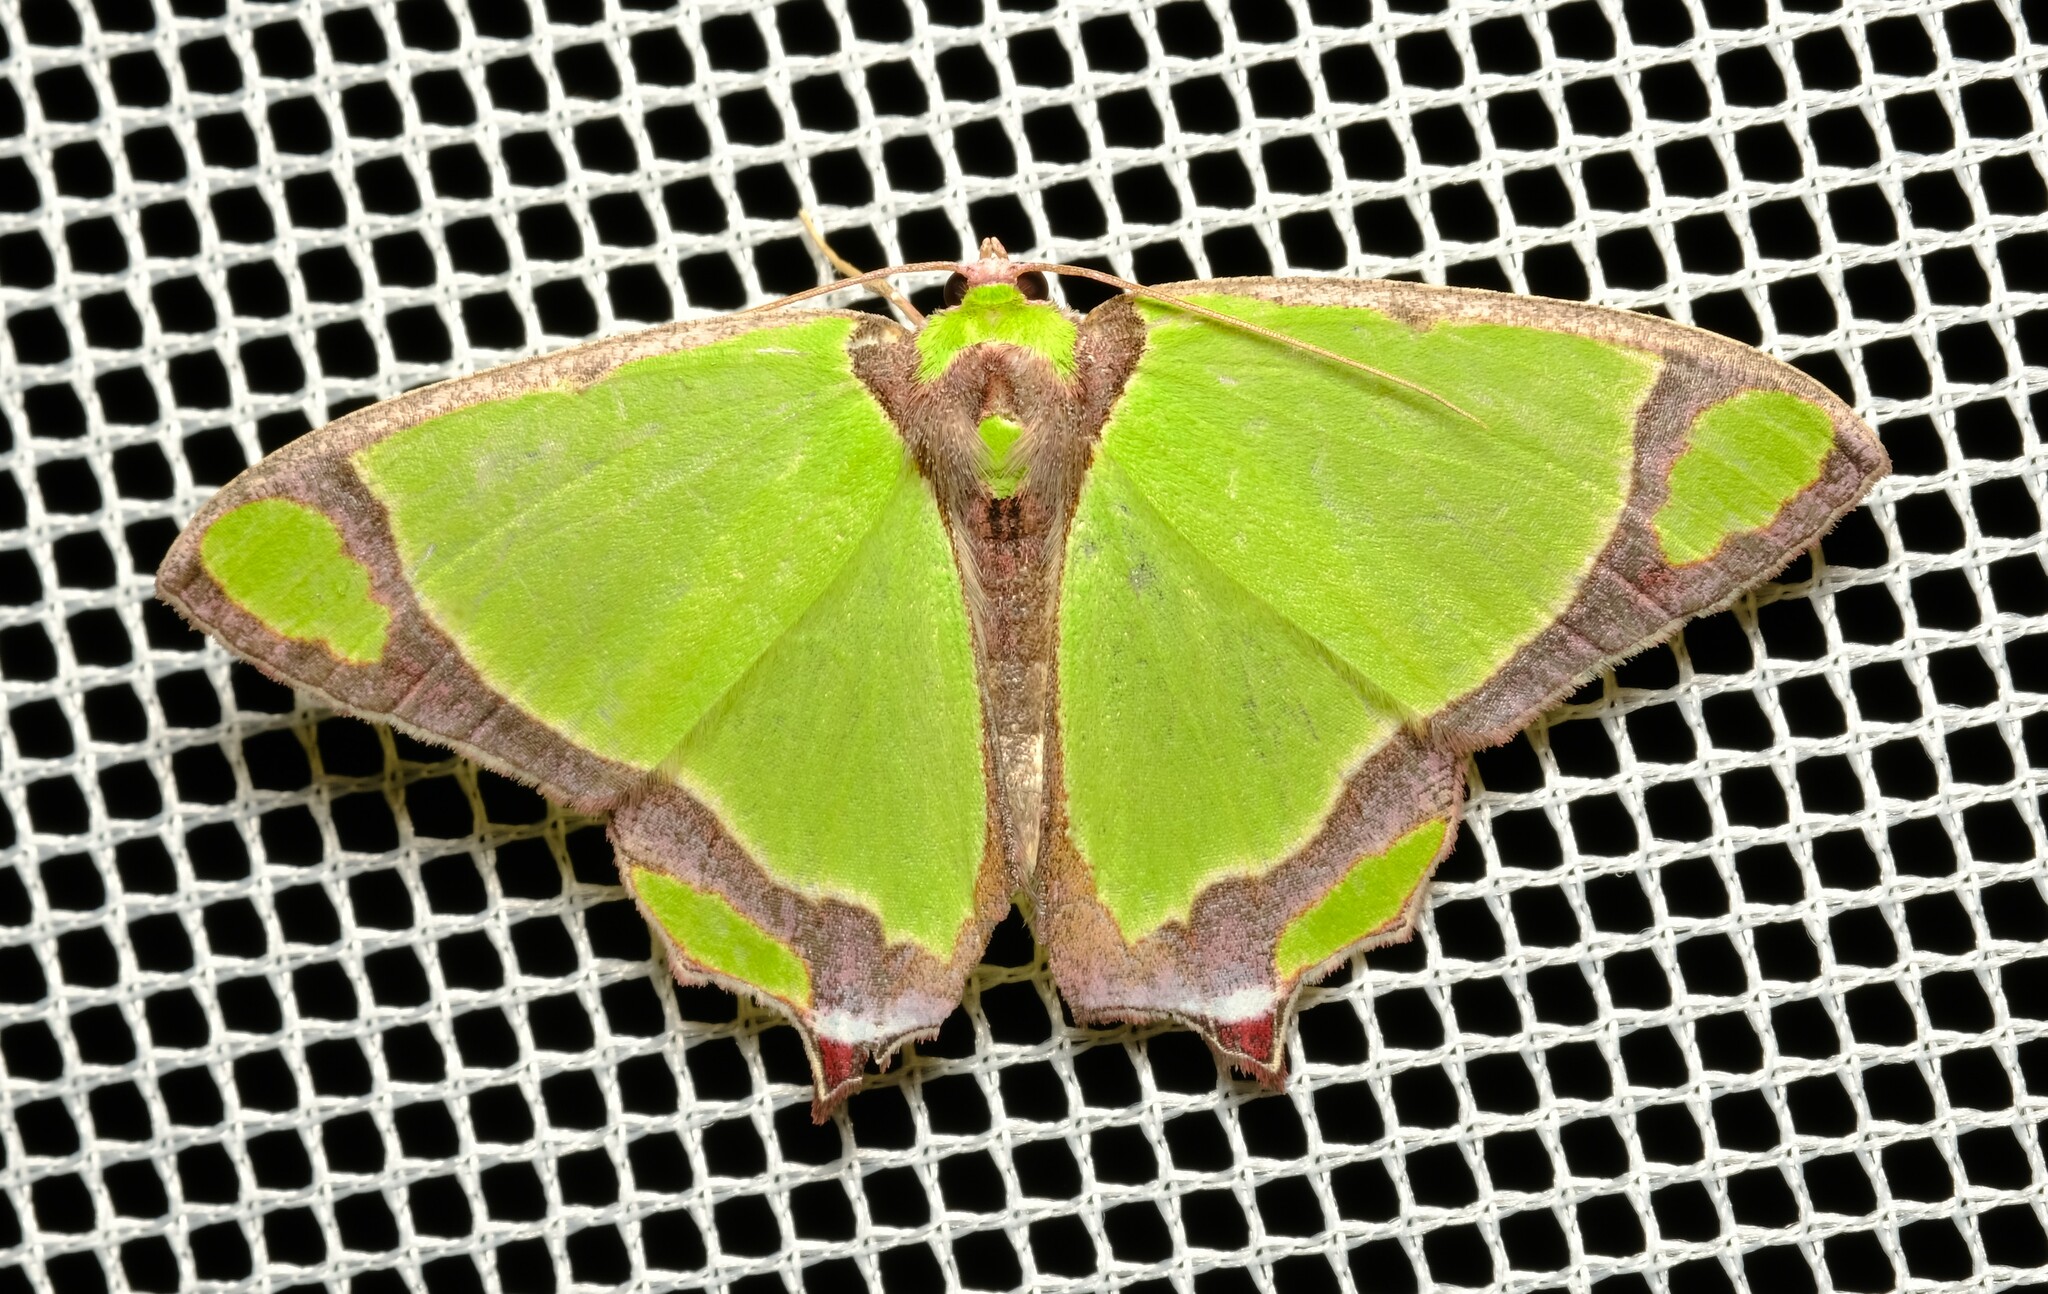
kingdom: Animalia
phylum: Arthropoda
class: Insecta
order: Lepidoptera
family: Geometridae
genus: Agathia
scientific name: Agathia prasinaspis
